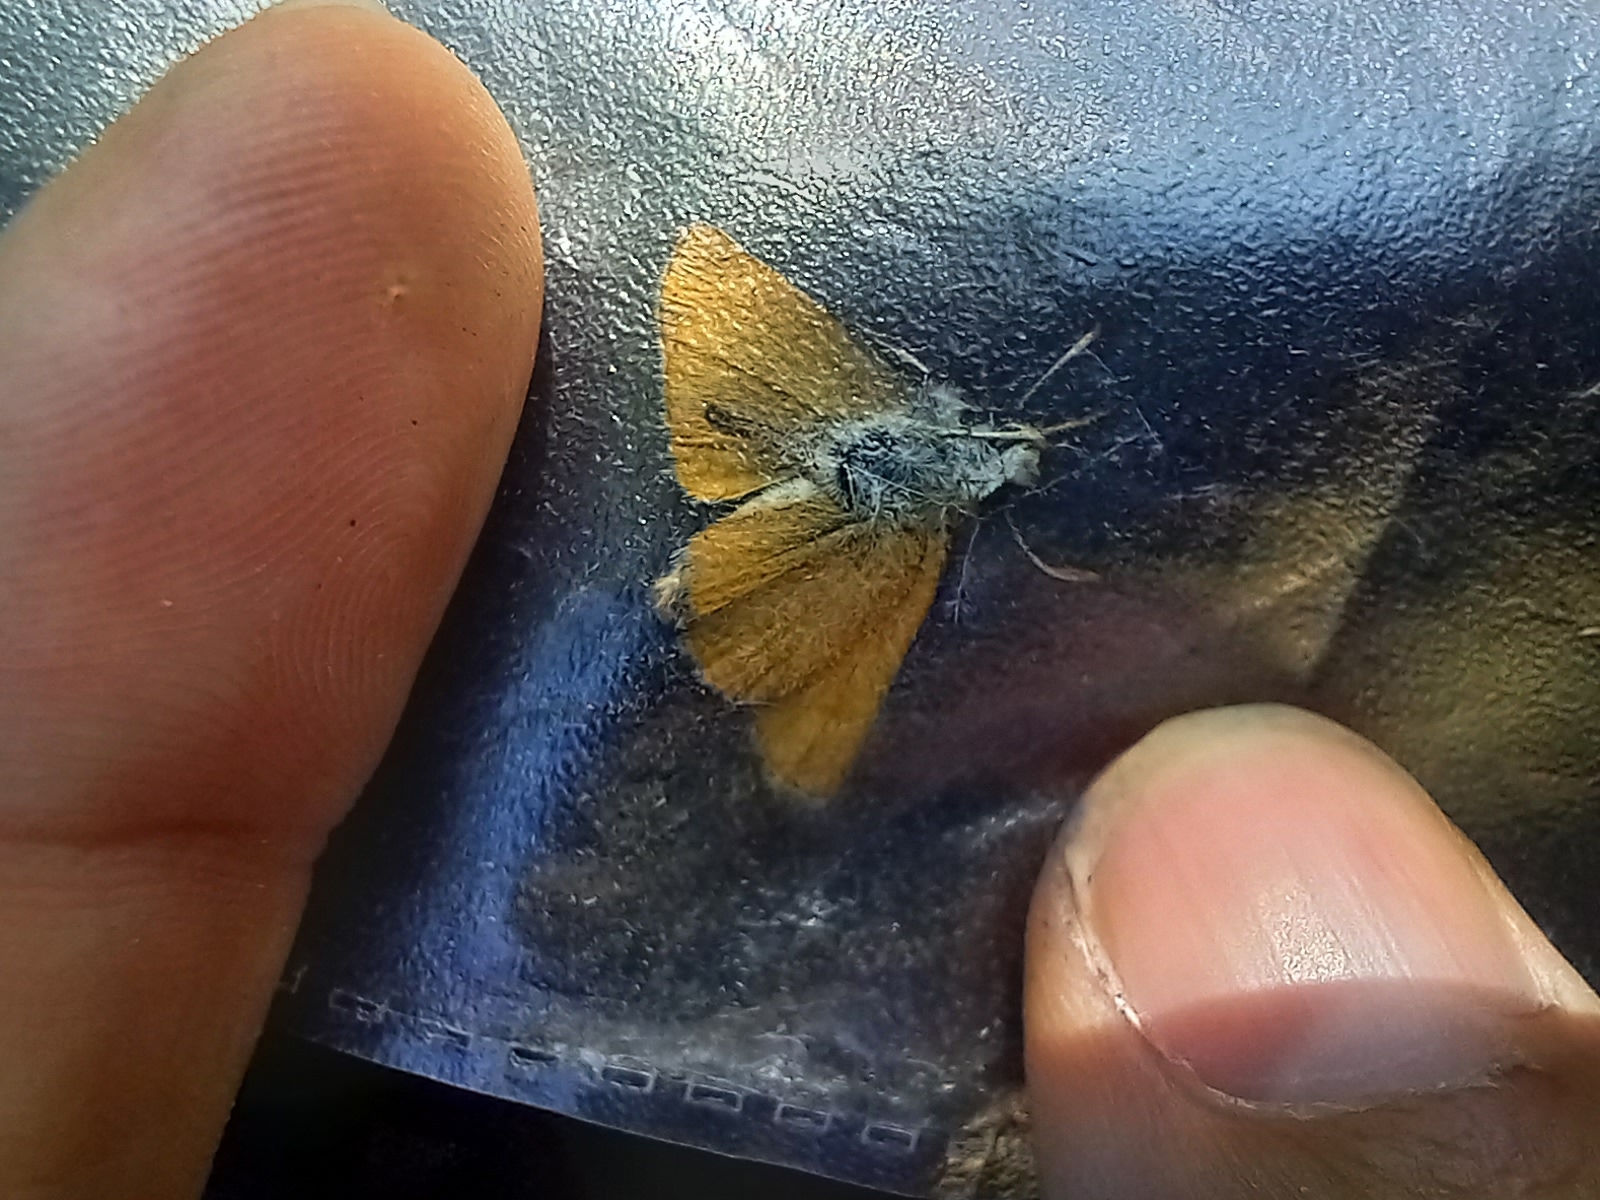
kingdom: Animalia
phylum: Arthropoda
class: Insecta
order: Lepidoptera
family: Hesperiidae
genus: Thymelicus
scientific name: Thymelicus acteon
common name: Lulworth skipper
